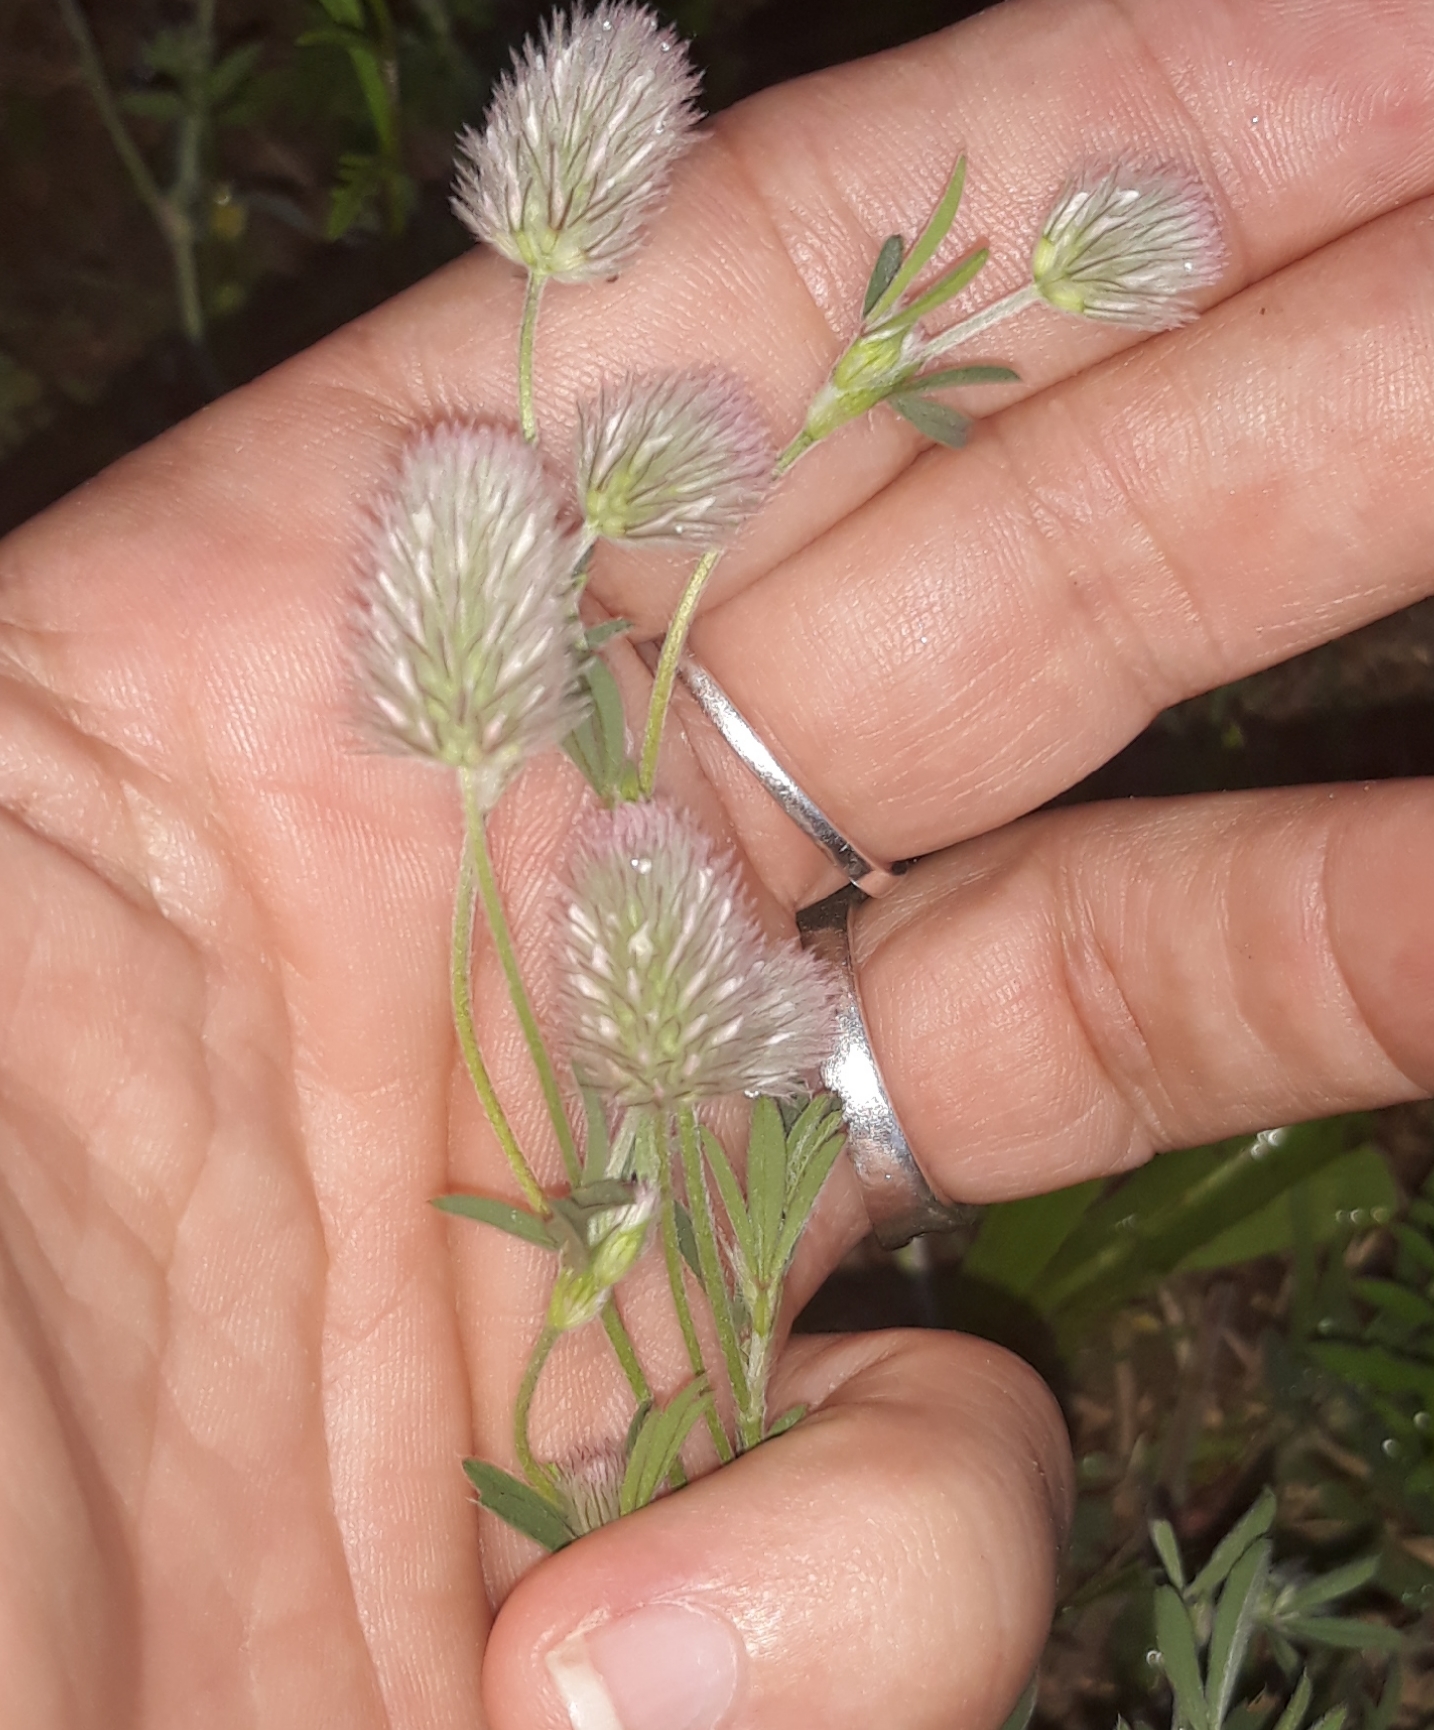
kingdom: Plantae
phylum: Tracheophyta
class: Magnoliopsida
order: Fabales
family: Fabaceae
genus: Trifolium
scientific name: Trifolium arvense
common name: Hare's-foot clover
